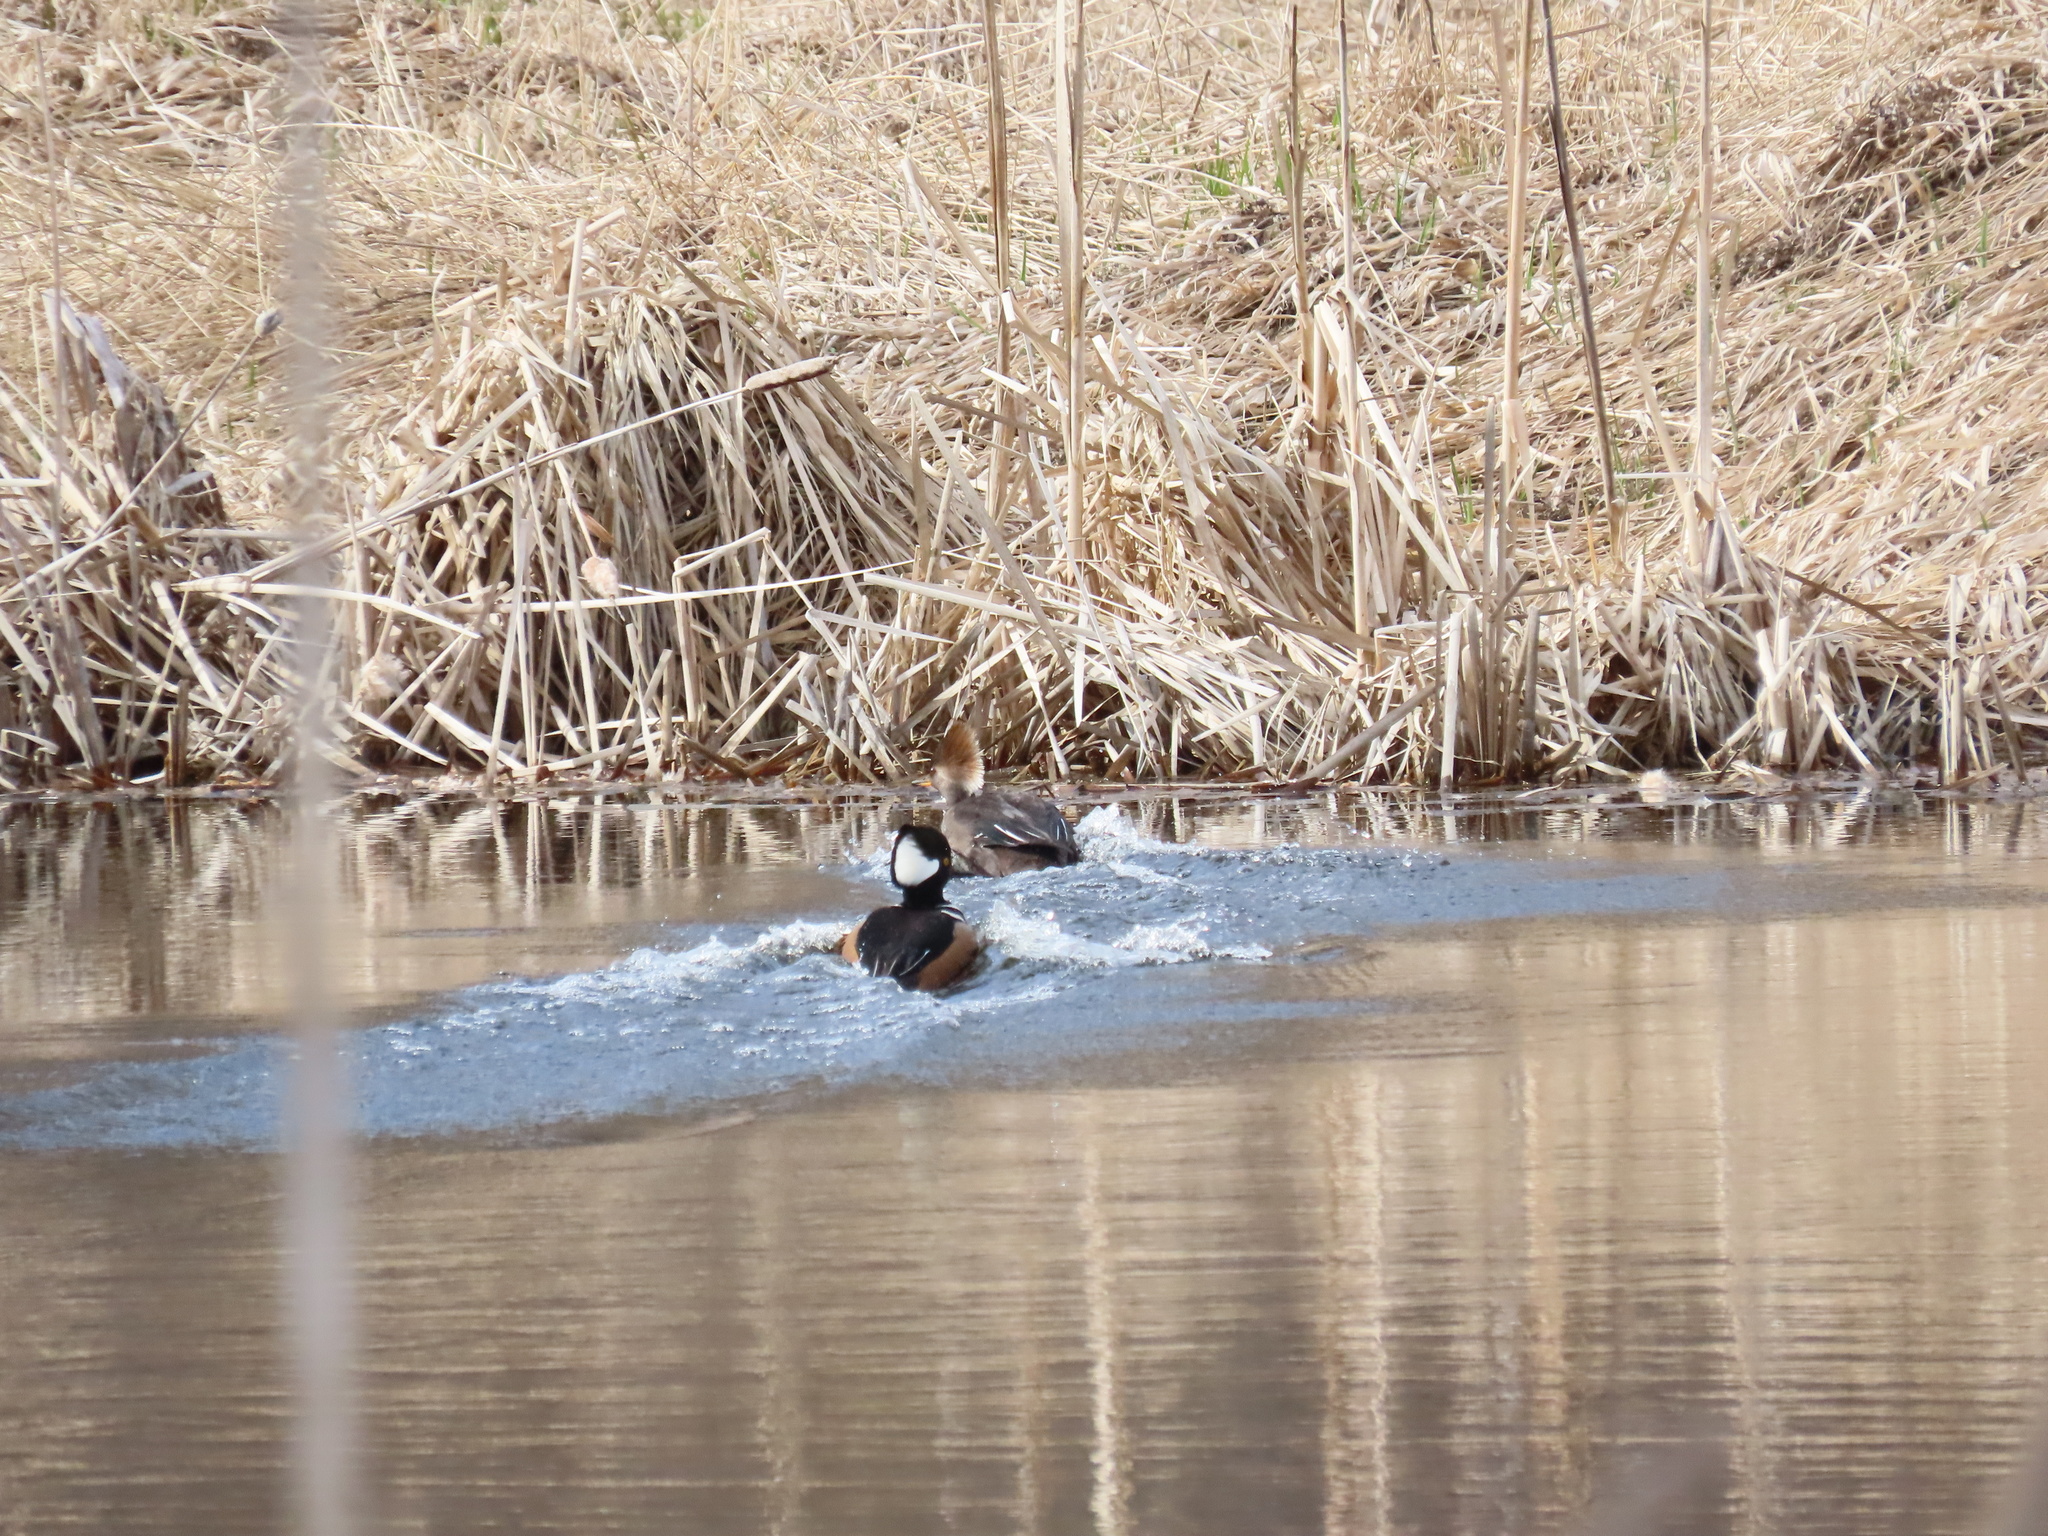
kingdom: Animalia
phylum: Chordata
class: Aves
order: Anseriformes
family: Anatidae
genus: Lophodytes
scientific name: Lophodytes cucullatus
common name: Hooded merganser
